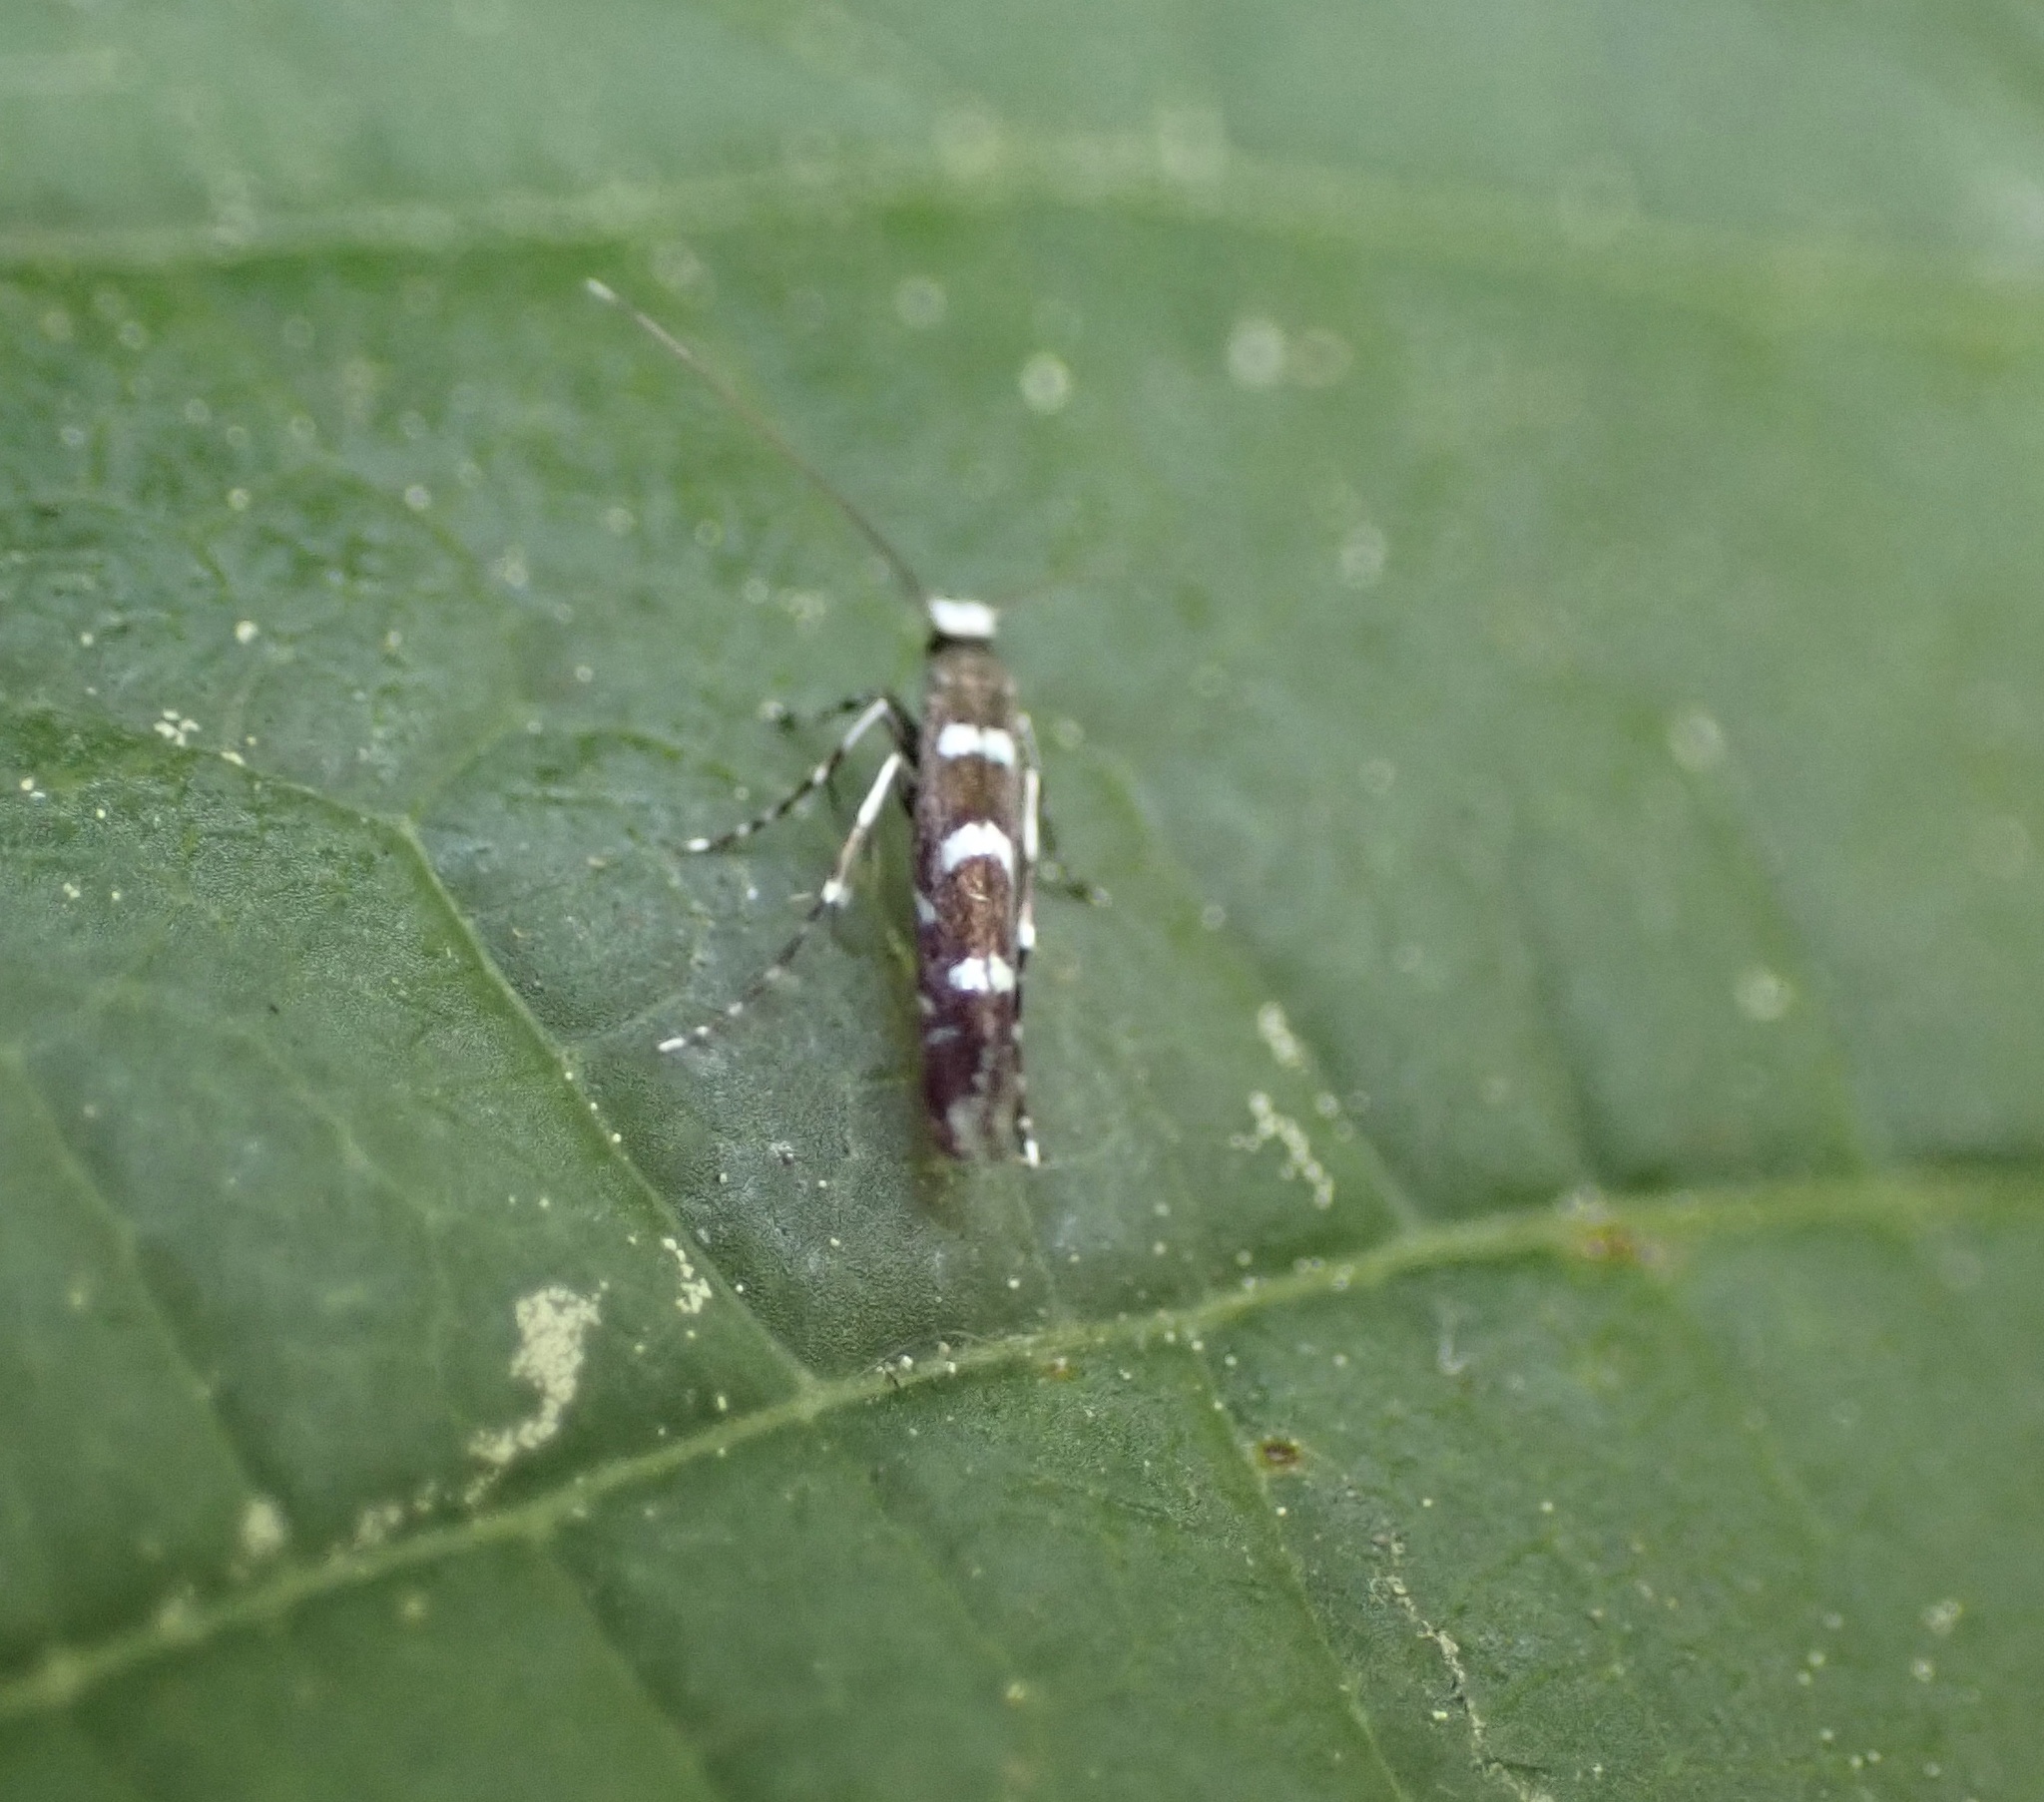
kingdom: Animalia
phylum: Arthropoda
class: Insecta
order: Lepidoptera
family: Gracillariidae
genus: Parectopa
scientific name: Parectopa robiniella
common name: Locust digitate leafminer
